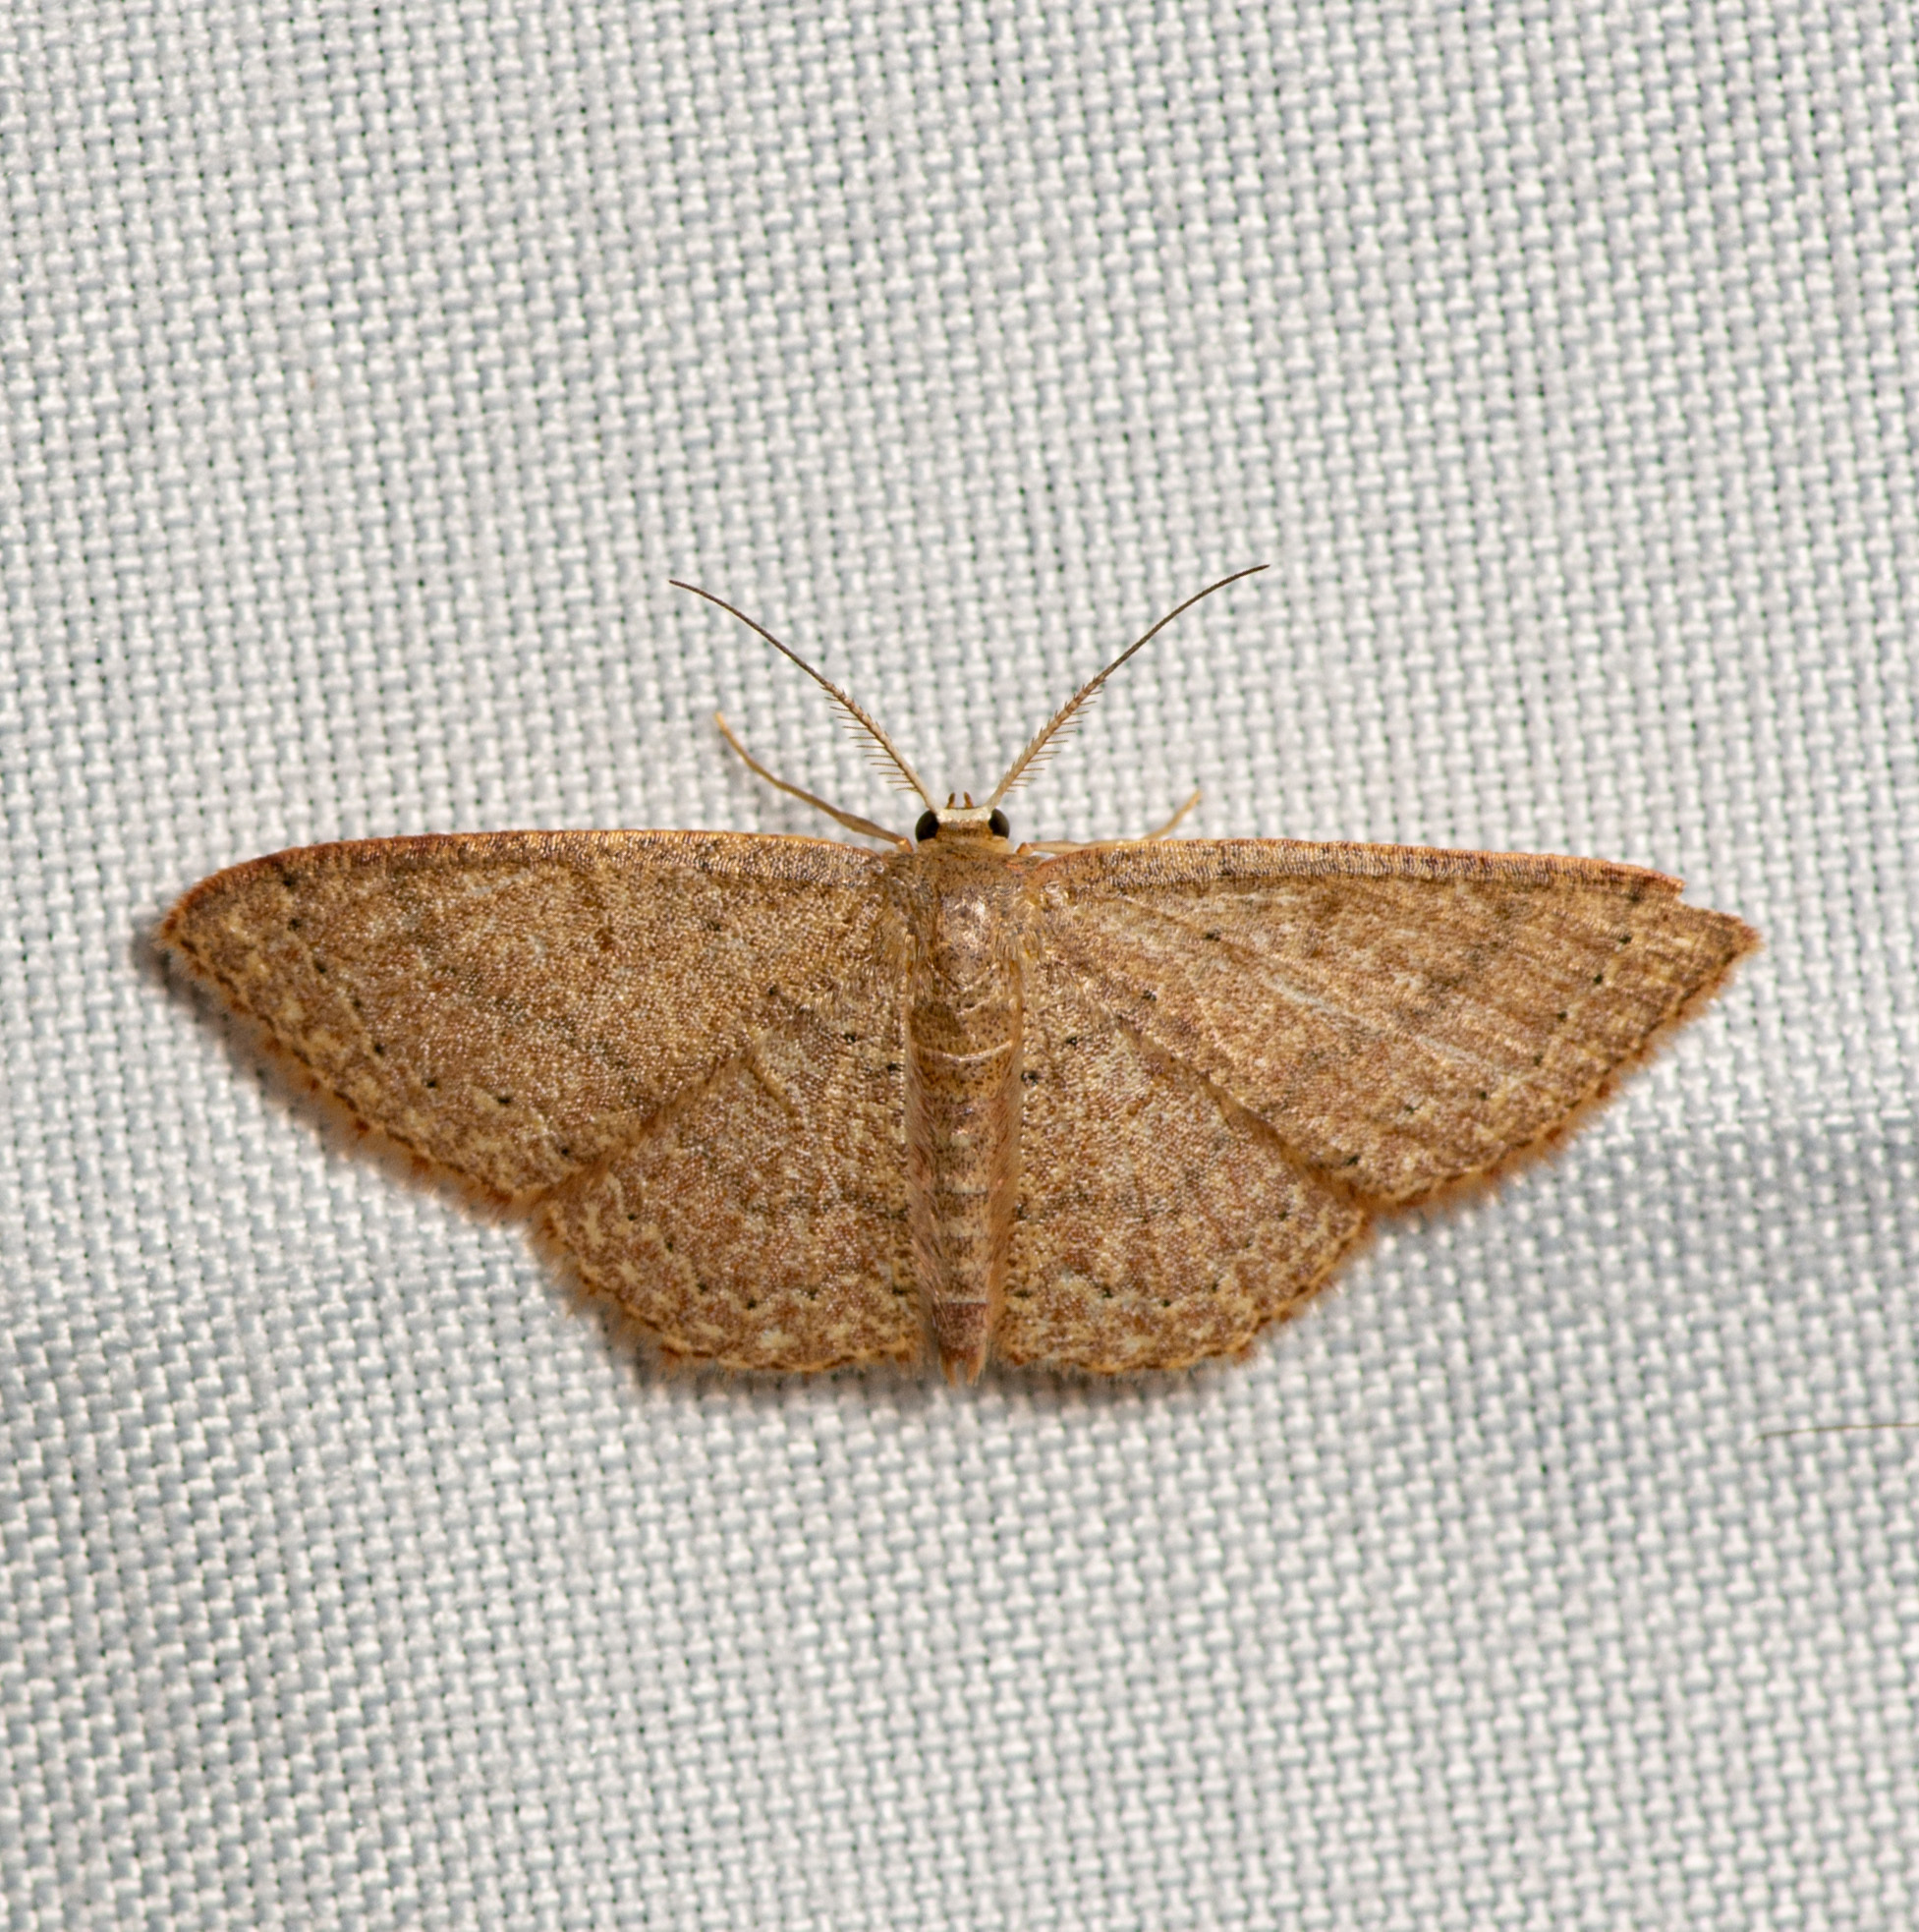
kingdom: Animalia
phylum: Arthropoda
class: Insecta
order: Lepidoptera
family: Geometridae
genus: Pleuroprucha
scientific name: Pleuroprucha insulsaria
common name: Common tan wave
